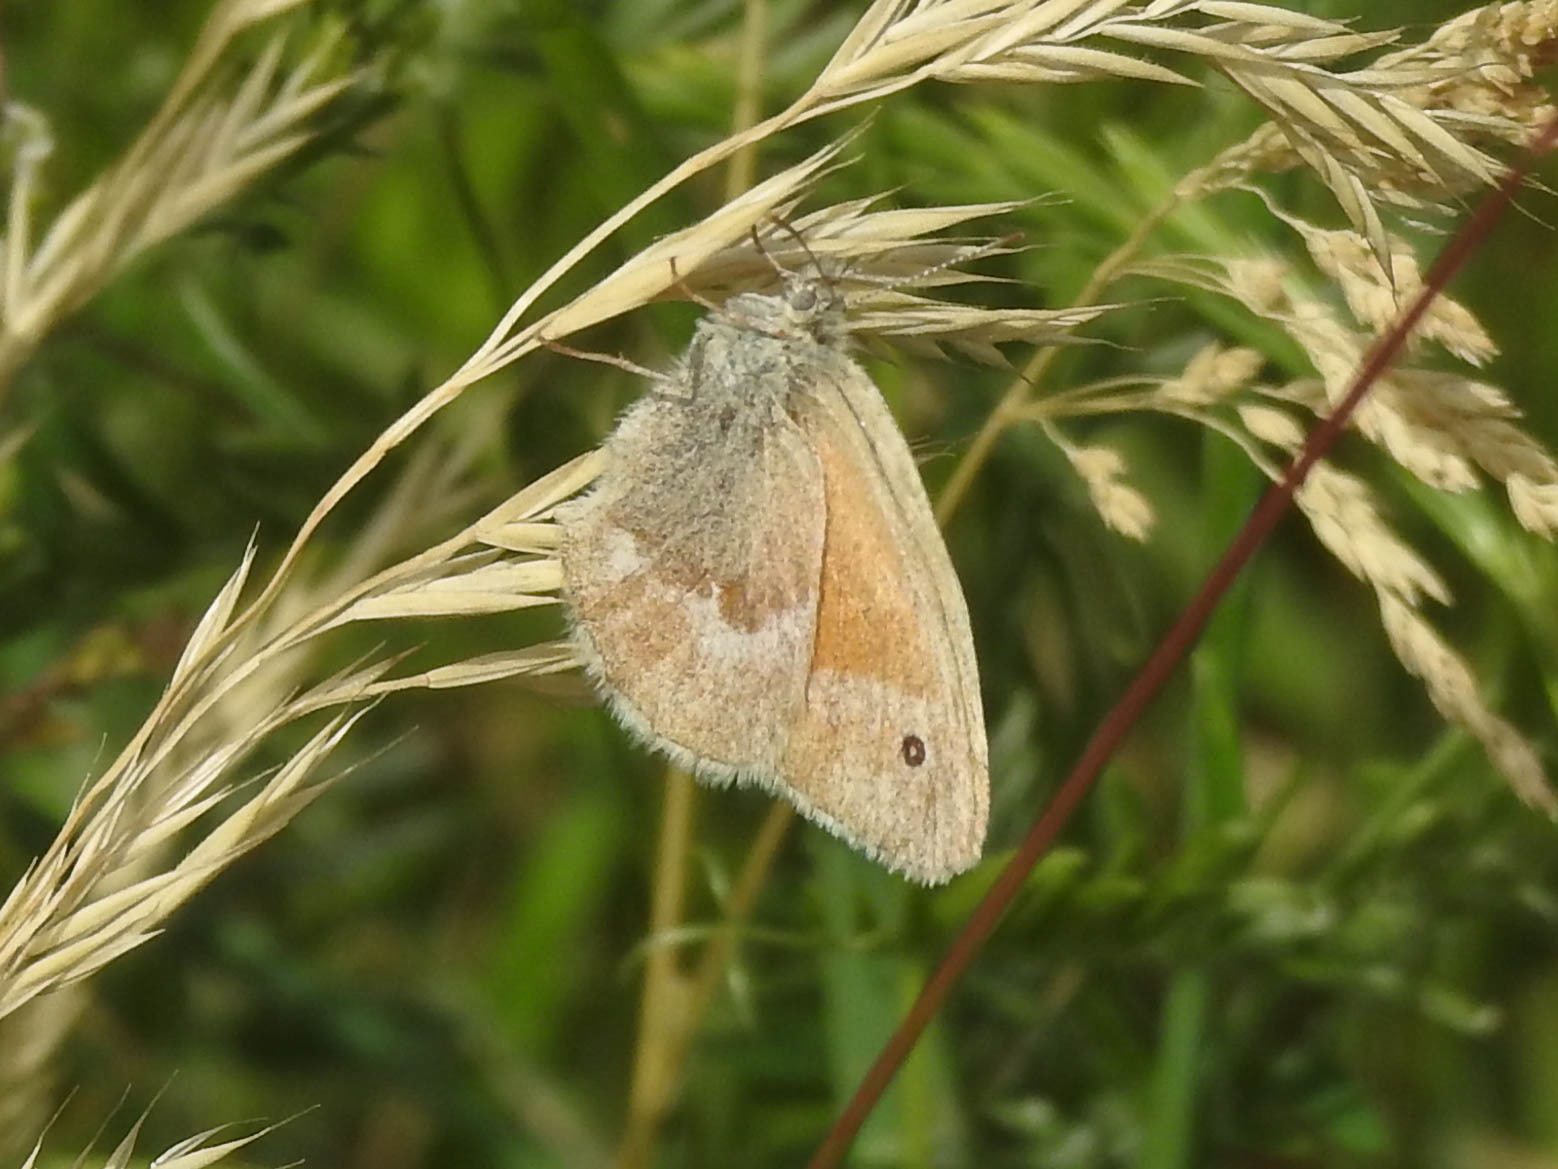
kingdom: Animalia
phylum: Arthropoda
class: Insecta
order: Lepidoptera
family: Nymphalidae
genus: Coenonympha
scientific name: Coenonympha california
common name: Common ringlet
